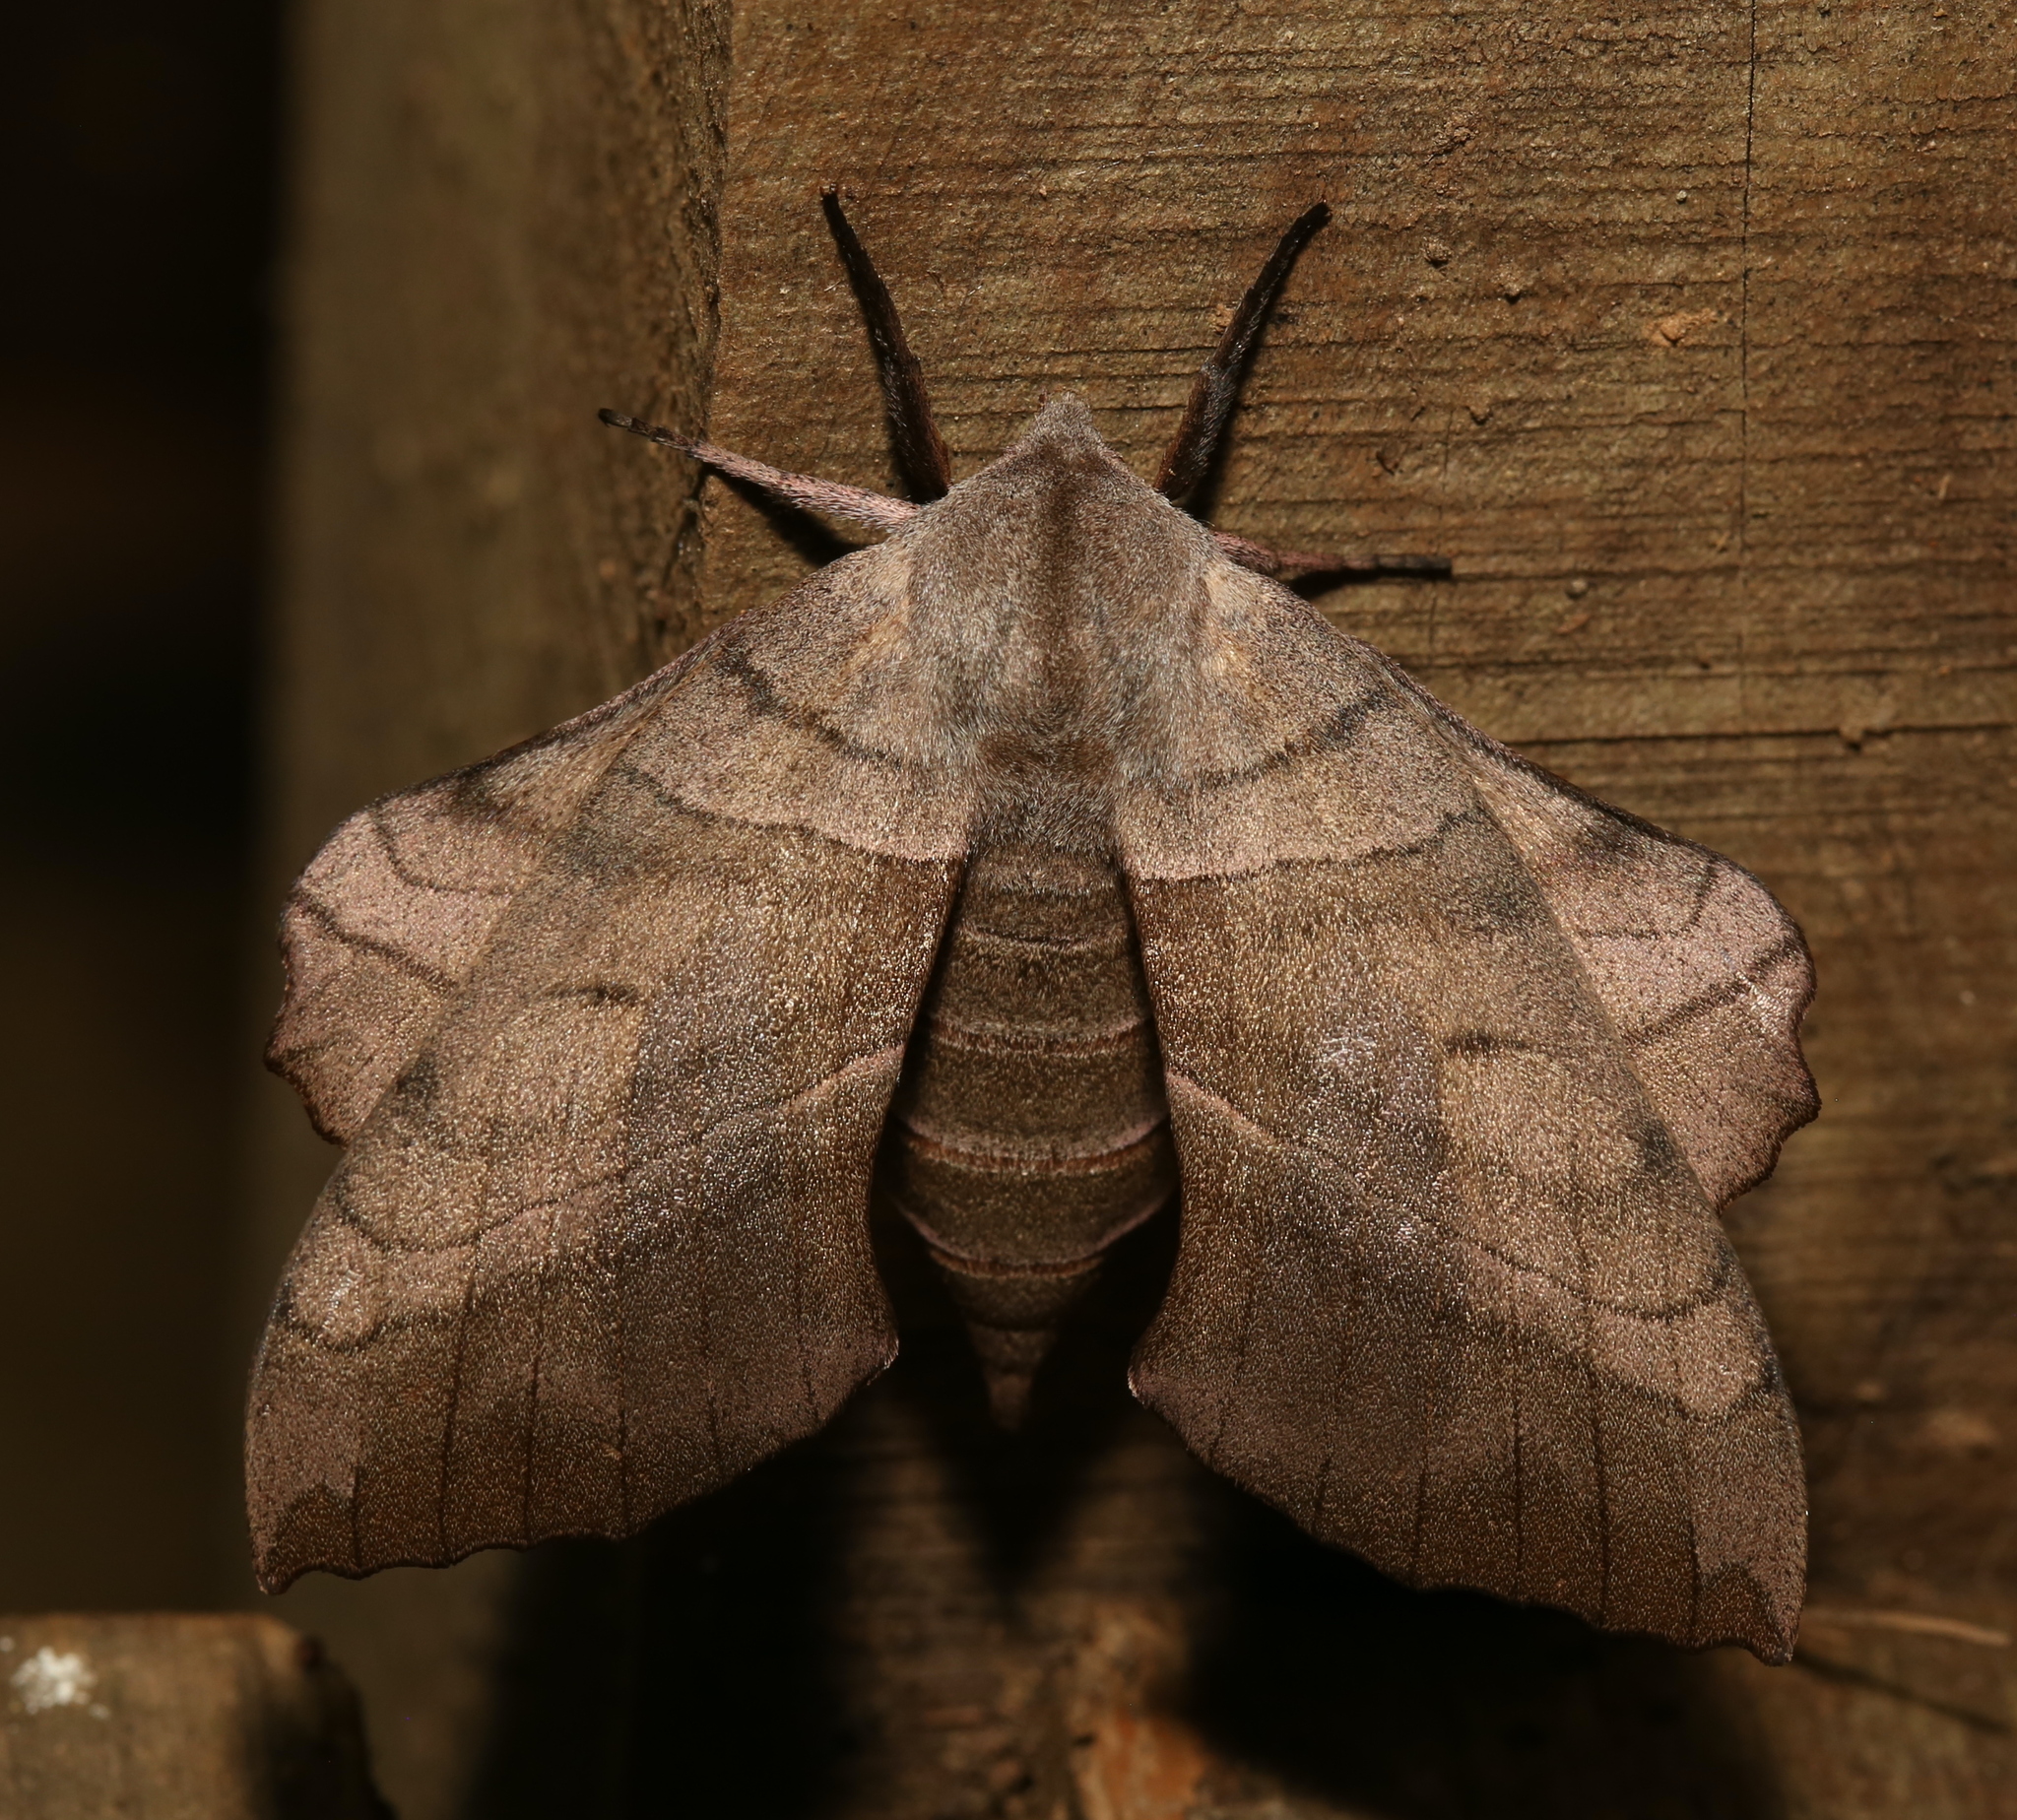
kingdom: Animalia
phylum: Arthropoda
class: Insecta
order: Lepidoptera
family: Sphingidae
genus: Amorpha
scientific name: Amorpha juglandis
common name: Walnut sphinx
